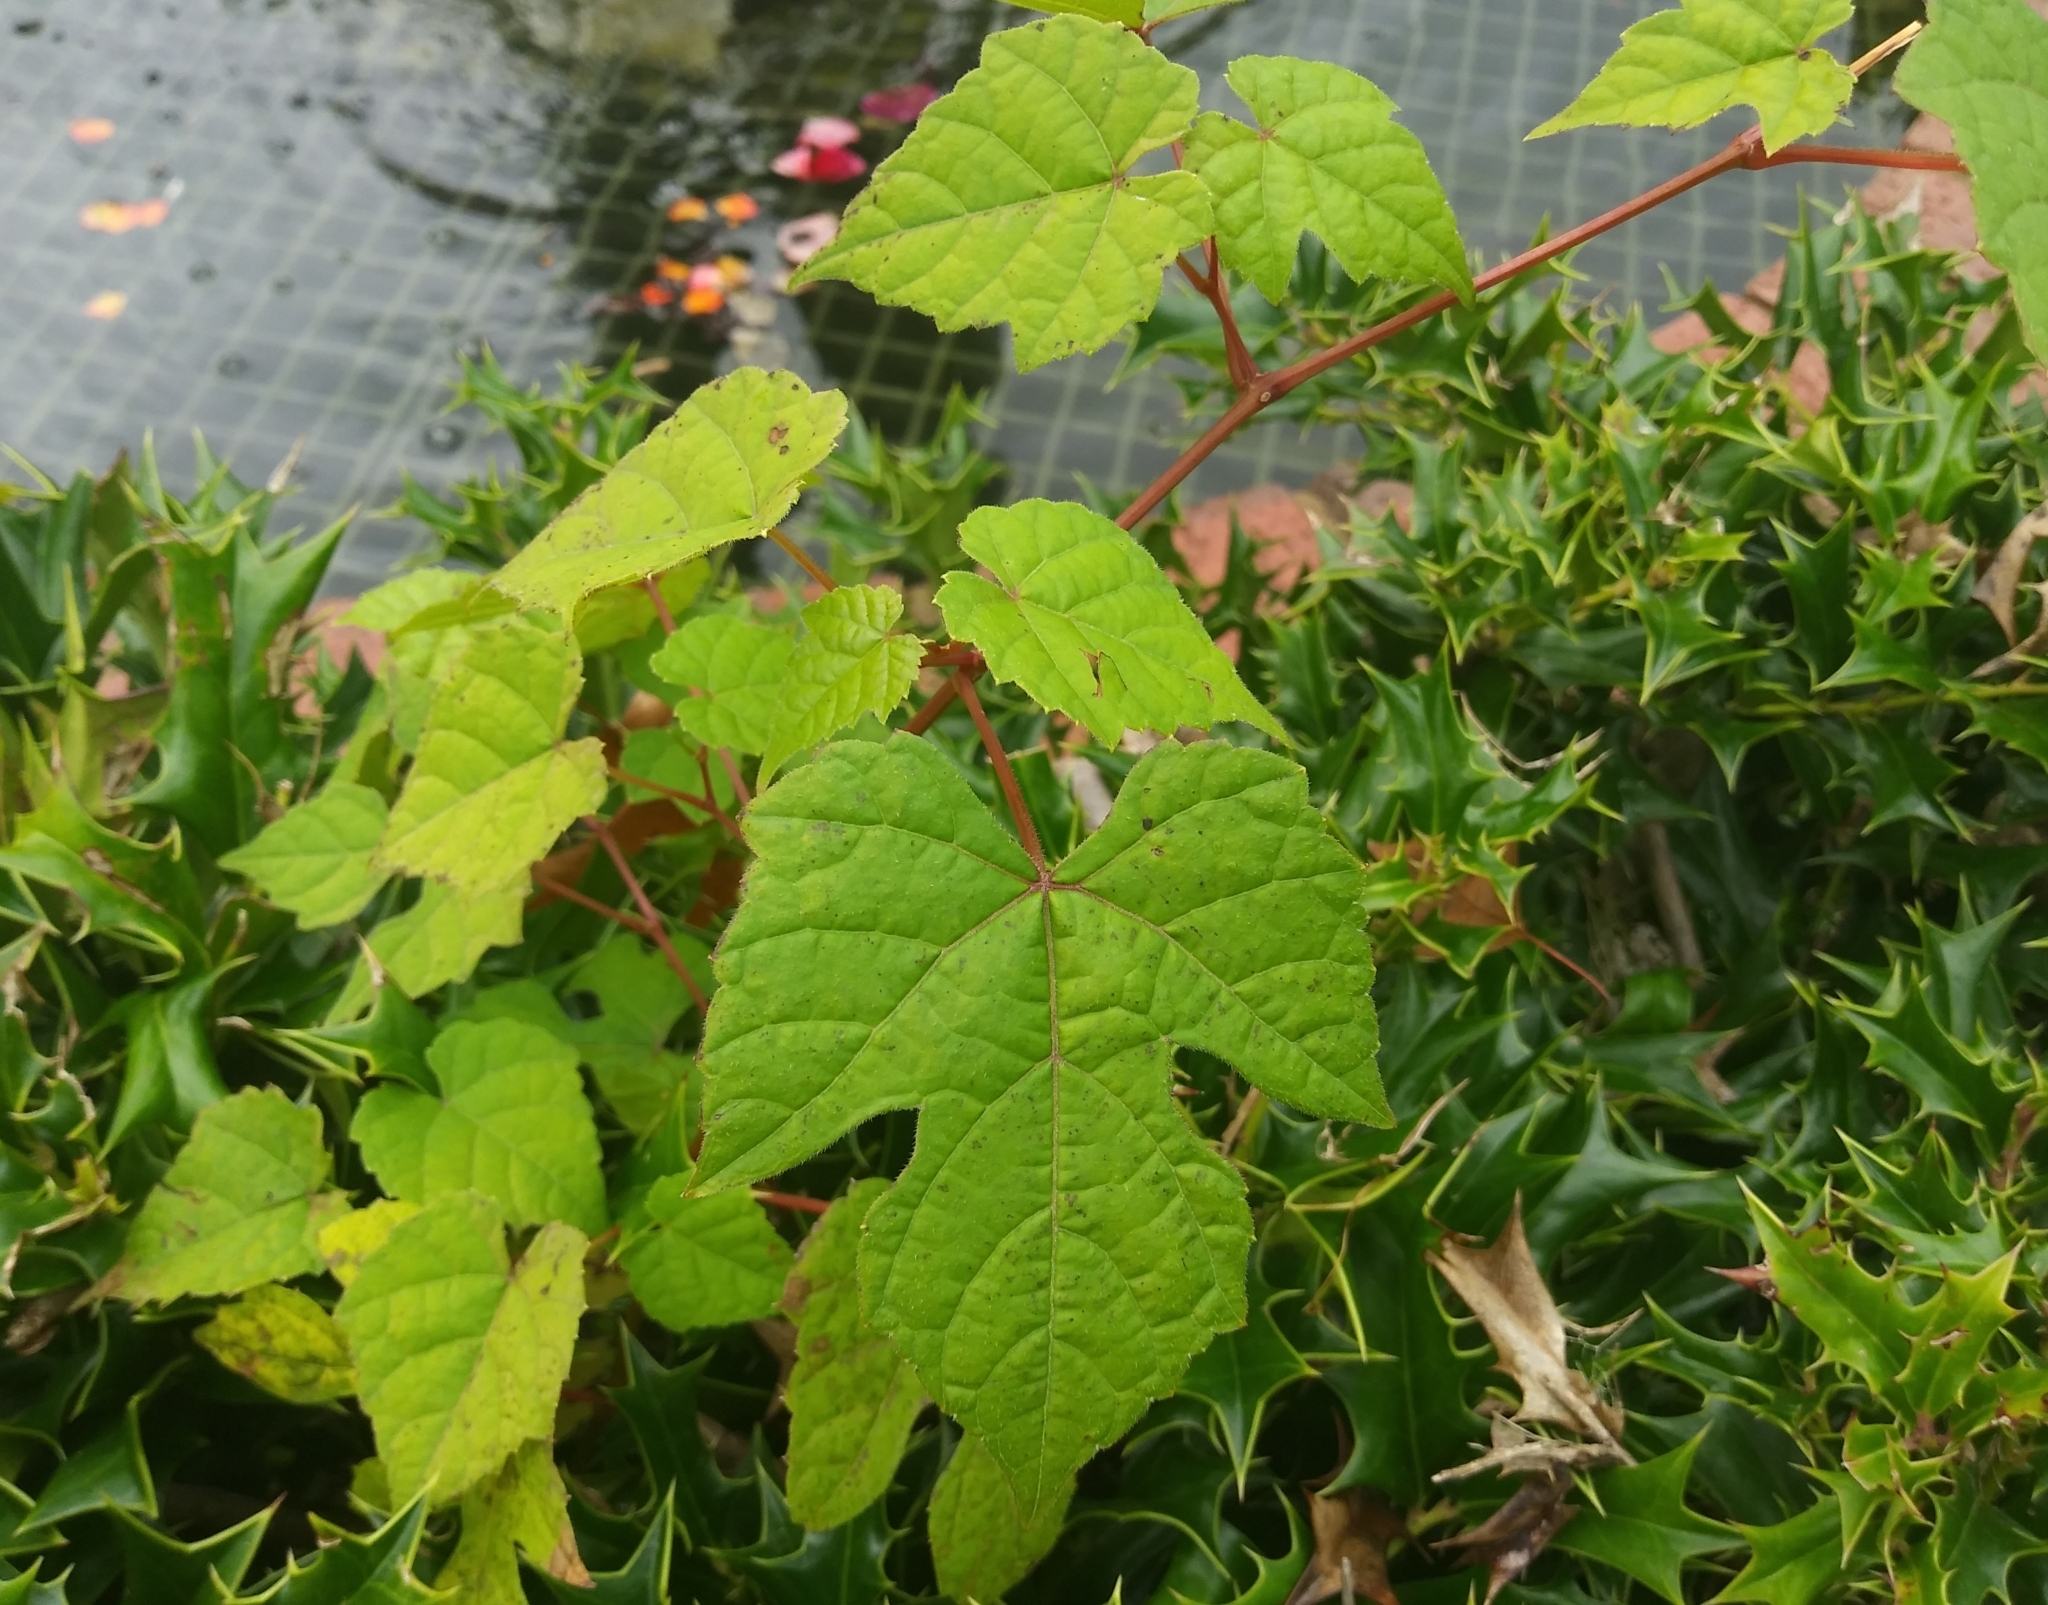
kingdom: Plantae
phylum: Tracheophyta
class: Magnoliopsida
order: Vitales
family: Vitaceae
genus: Ampelopsis
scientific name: Ampelopsis glandulosa
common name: Amur peppervine
